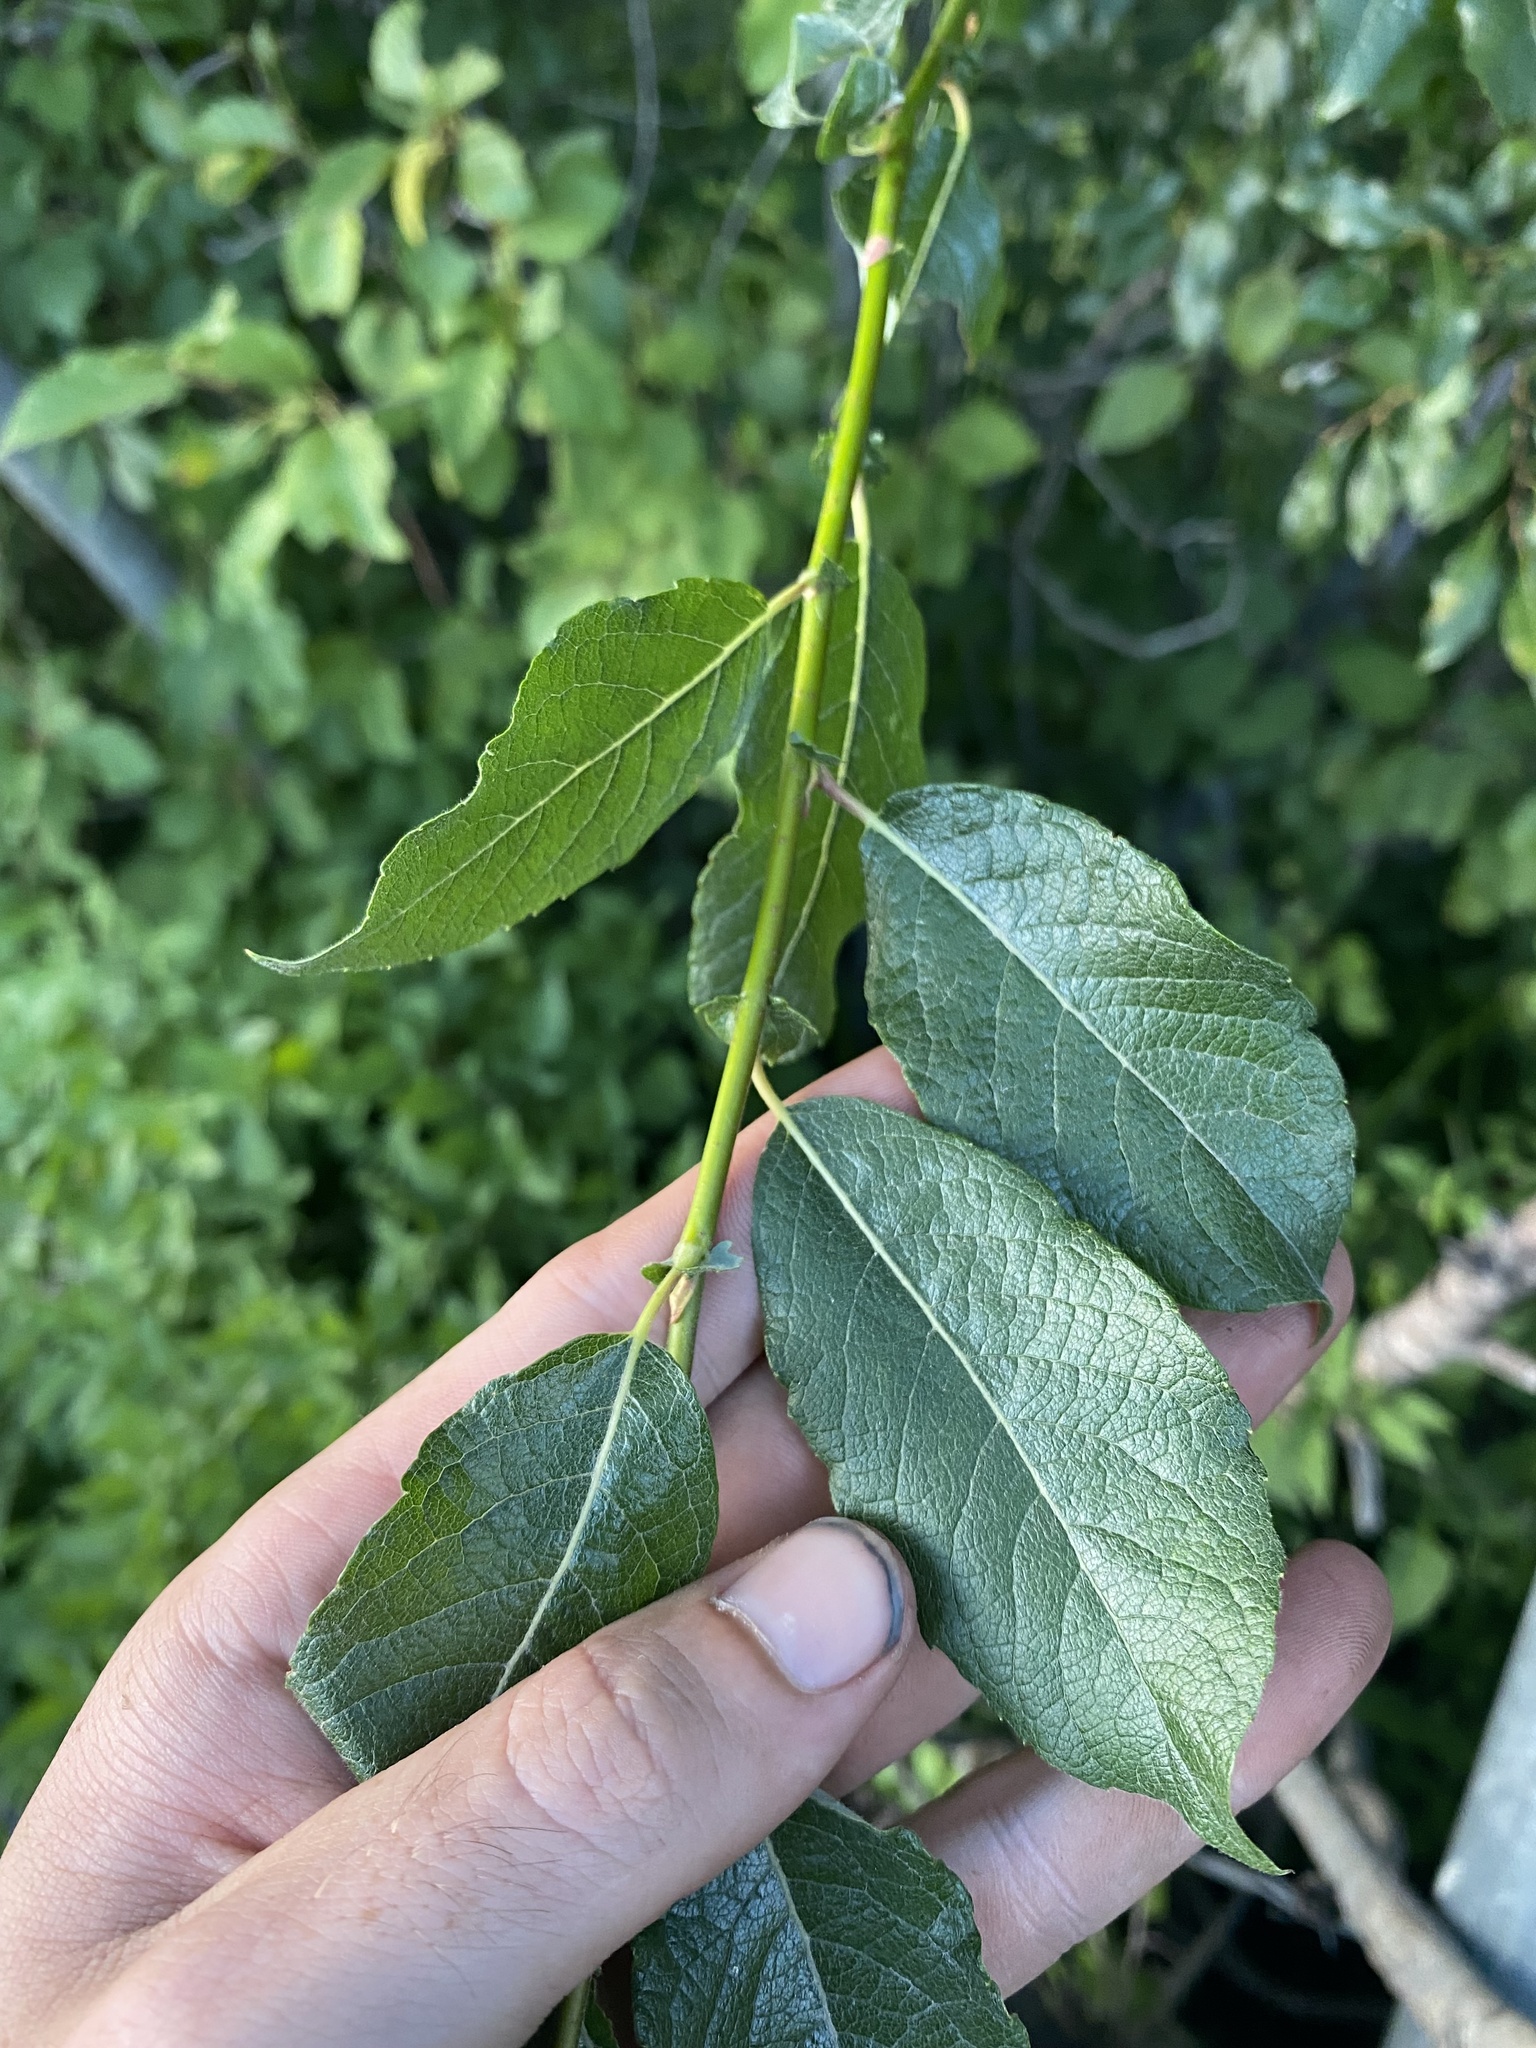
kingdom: Plantae
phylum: Tracheophyta
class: Magnoliopsida
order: Malpighiales
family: Salicaceae
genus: Salix
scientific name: Salix bebbiana
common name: Bebb's willow
